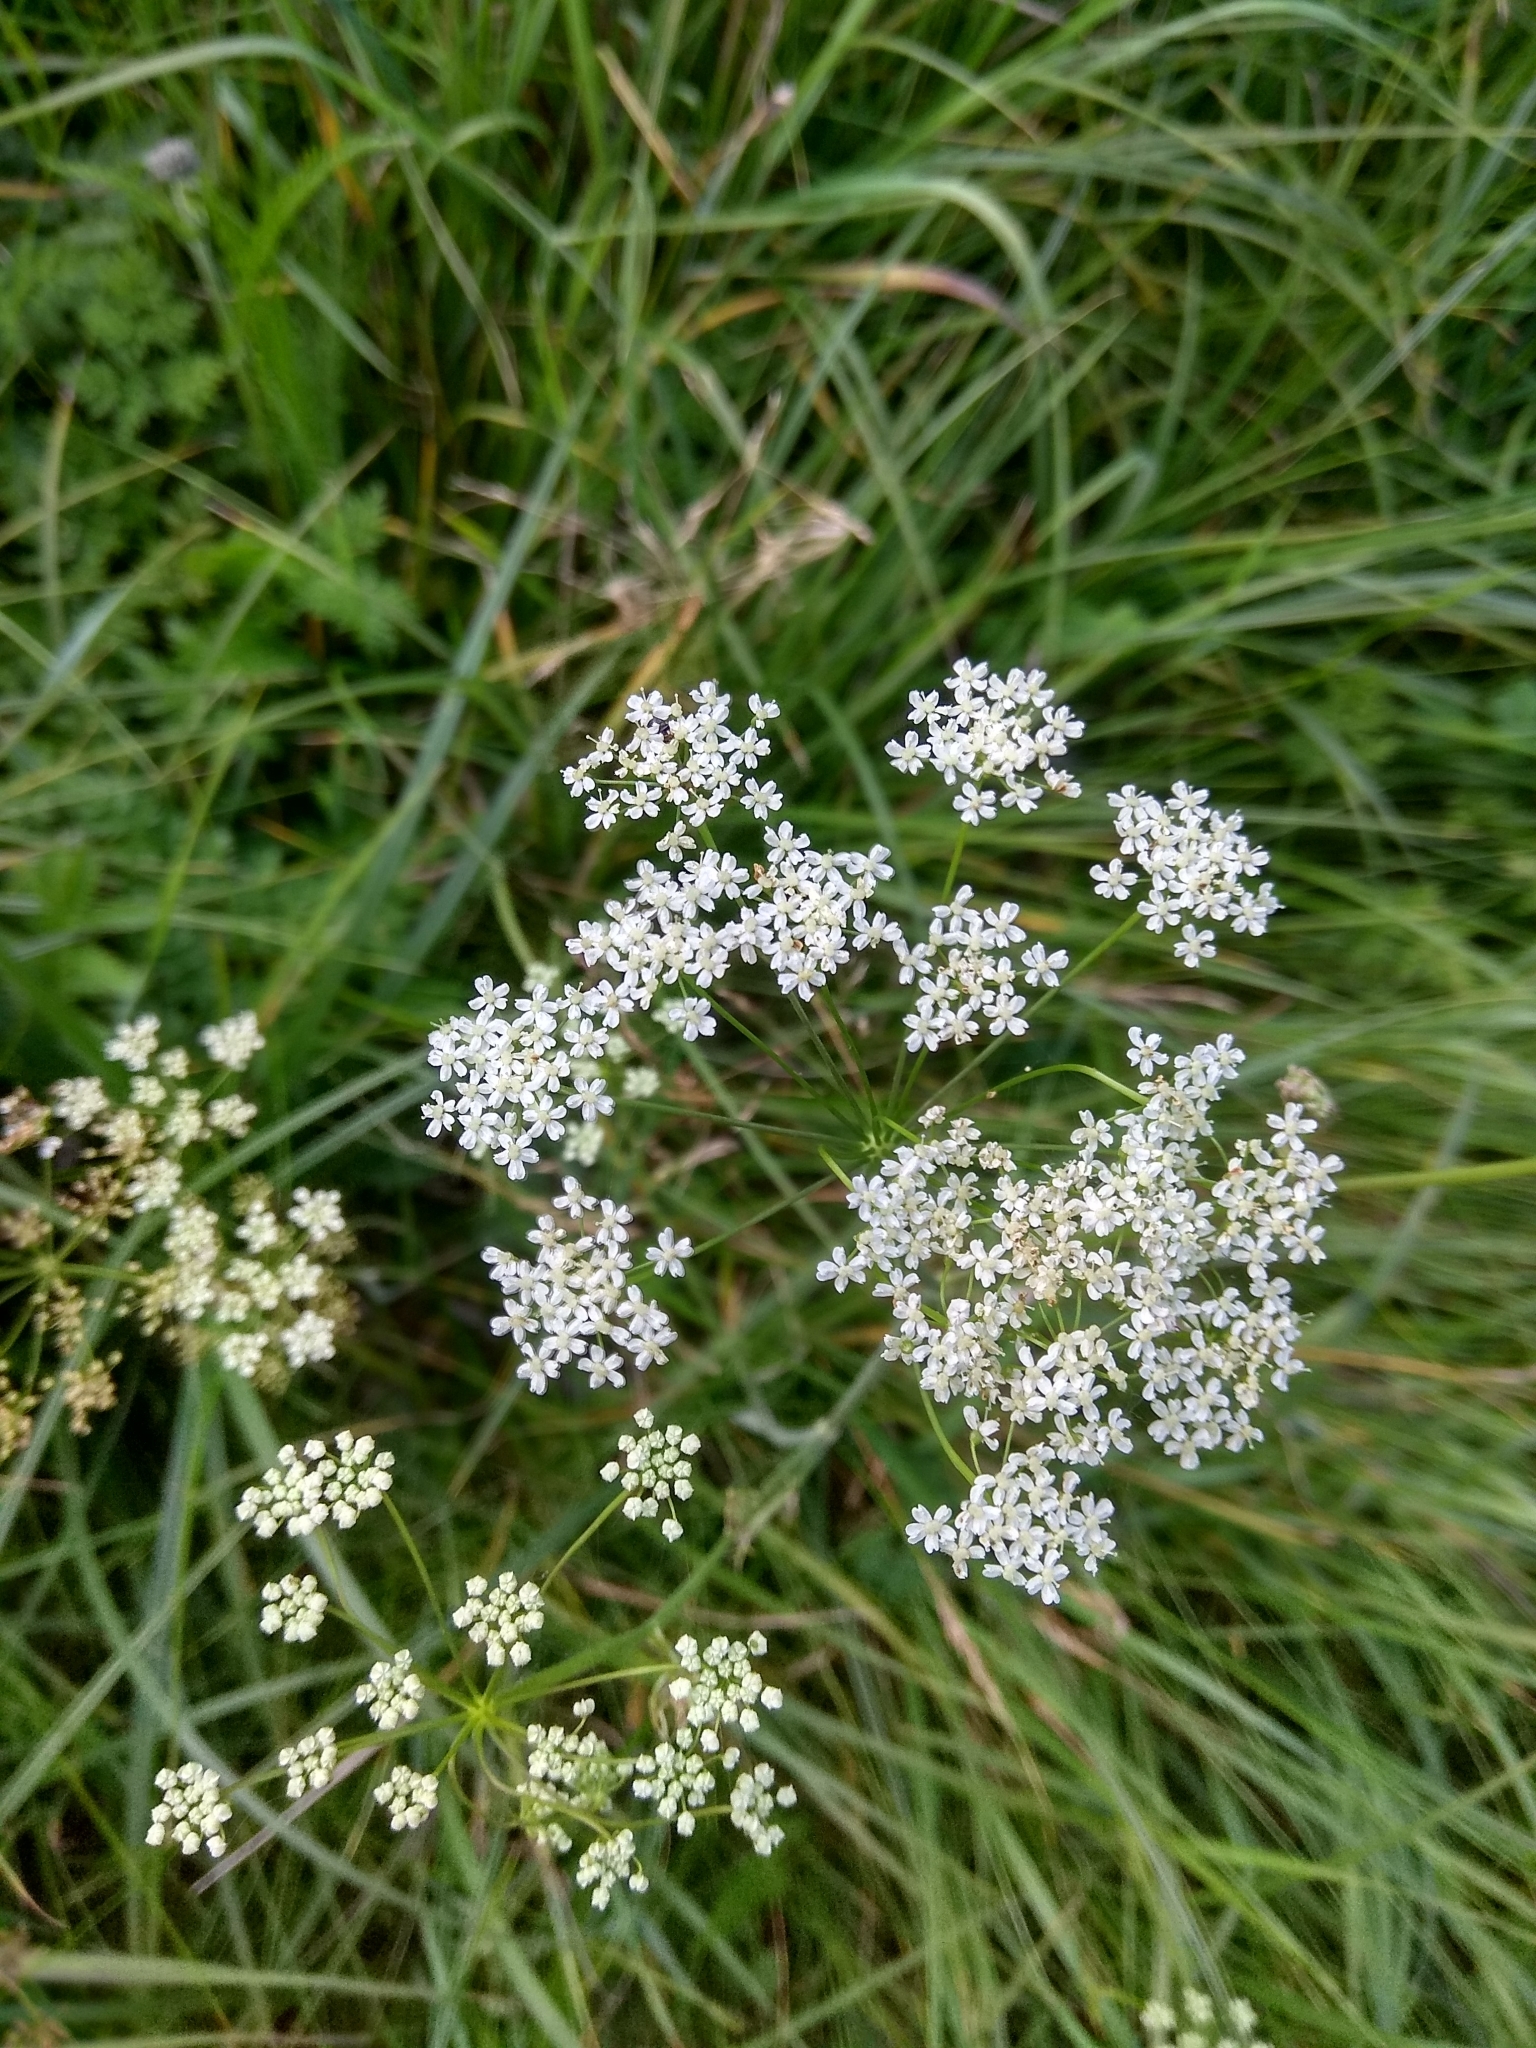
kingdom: Plantae
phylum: Tracheophyta
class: Magnoliopsida
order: Apiales
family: Apiaceae
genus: Pimpinella
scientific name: Pimpinella saxifraga
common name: Burnet-saxifrage
